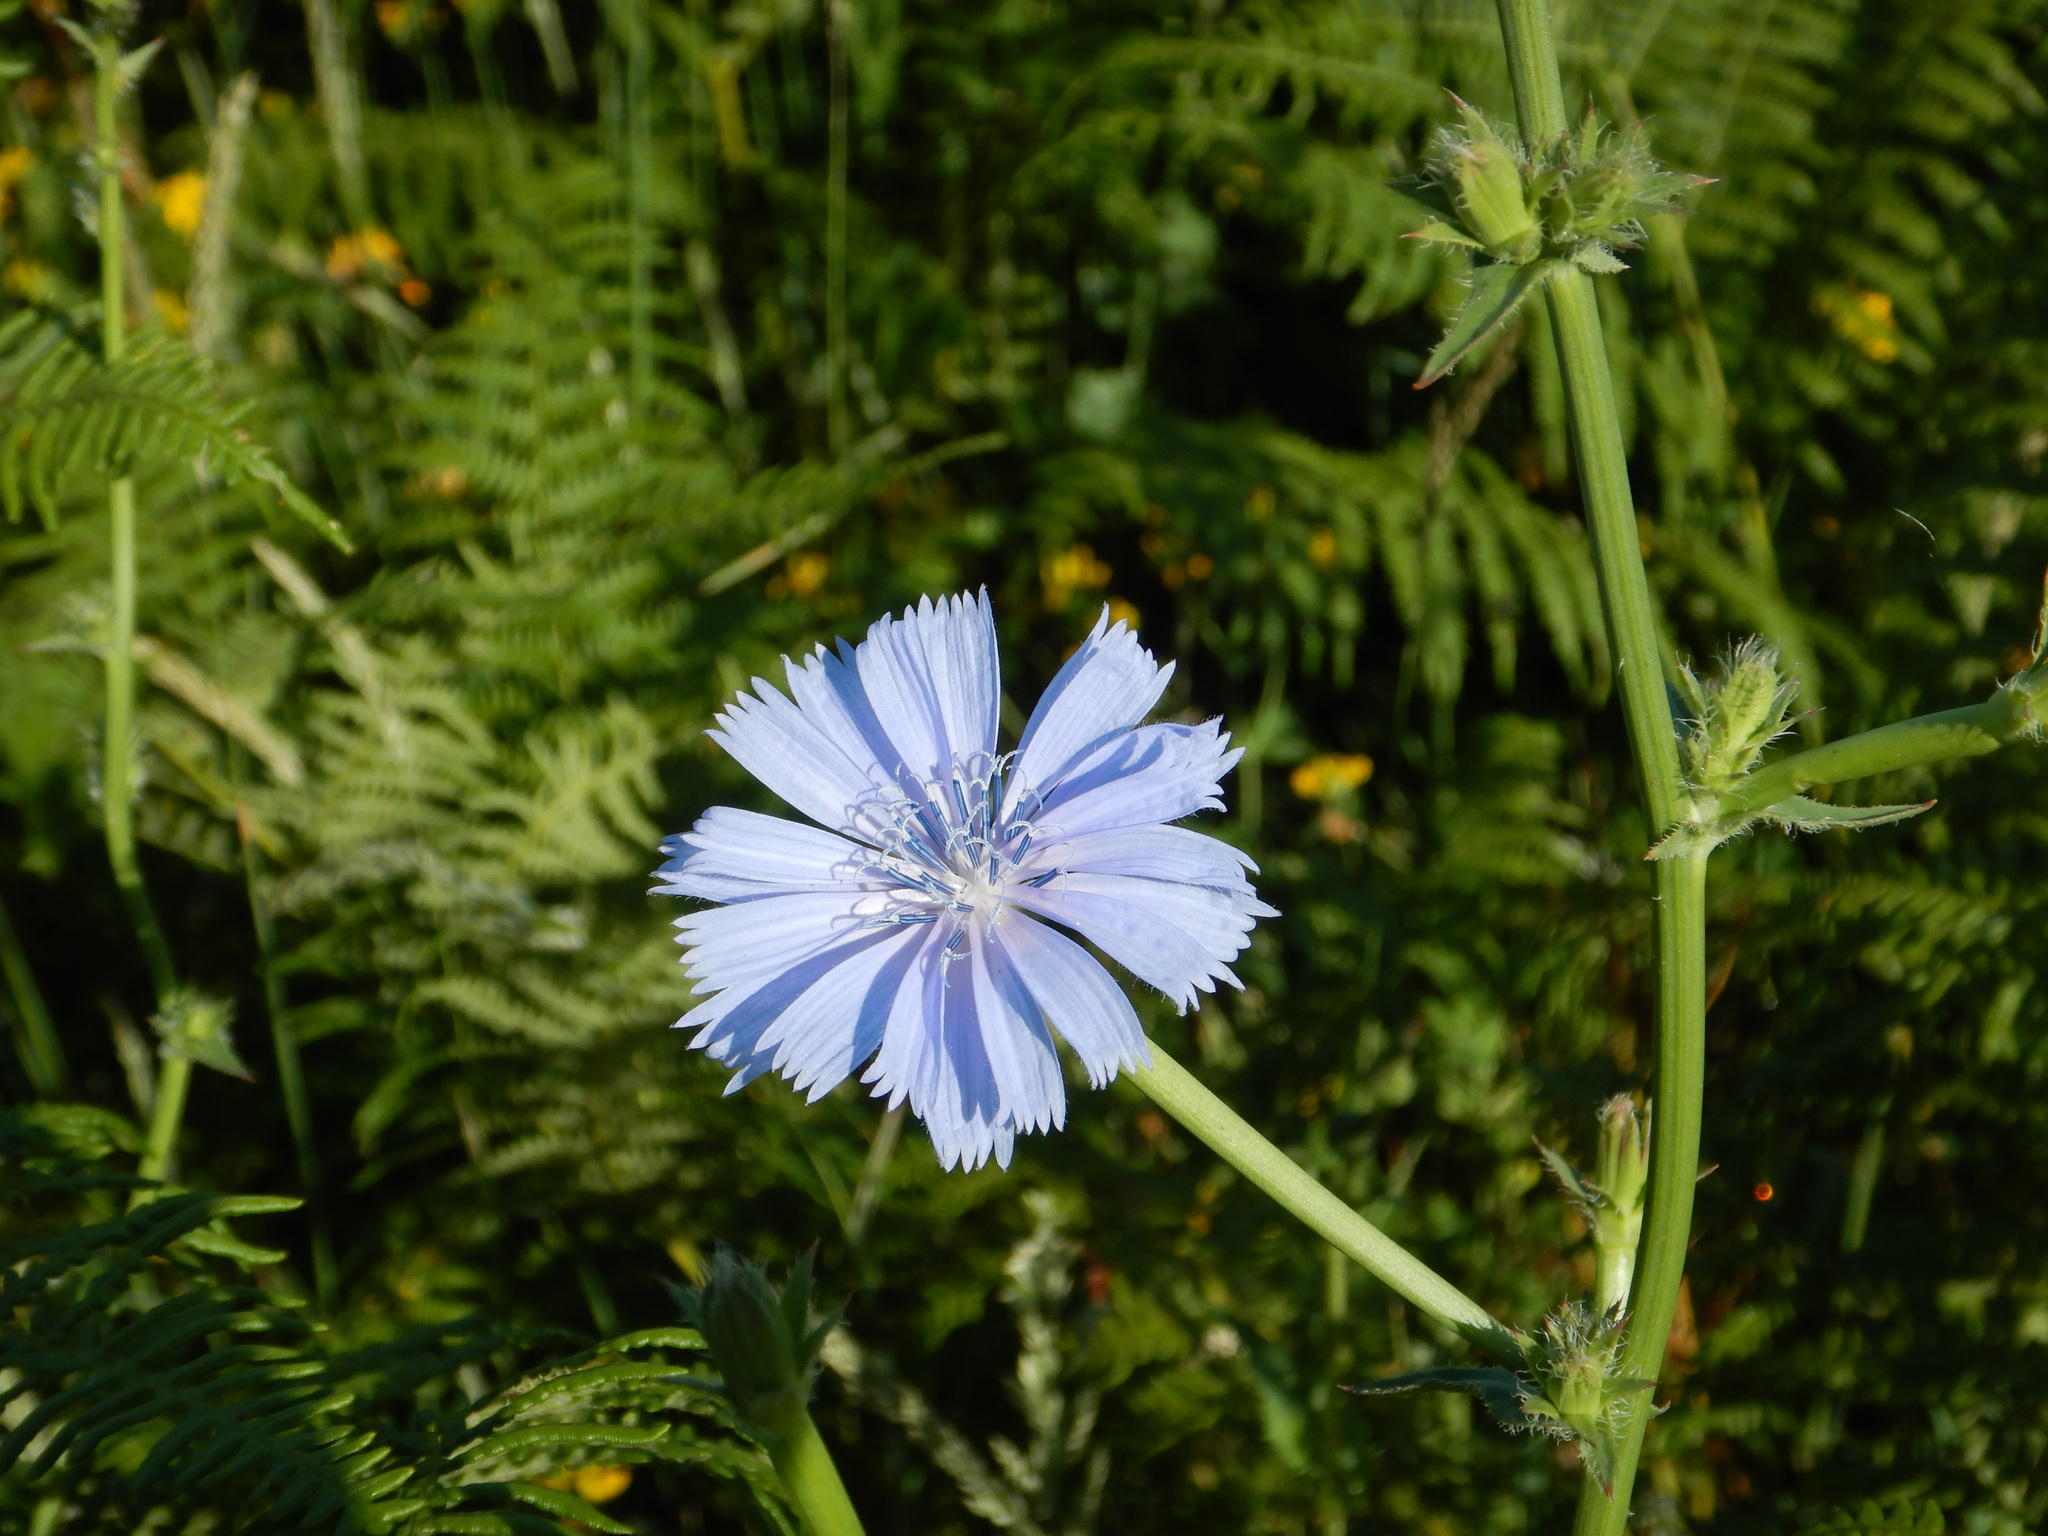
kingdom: Plantae
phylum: Tracheophyta
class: Magnoliopsida
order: Asterales
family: Asteraceae
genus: Cichorium
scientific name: Cichorium intybus
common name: Chicory
